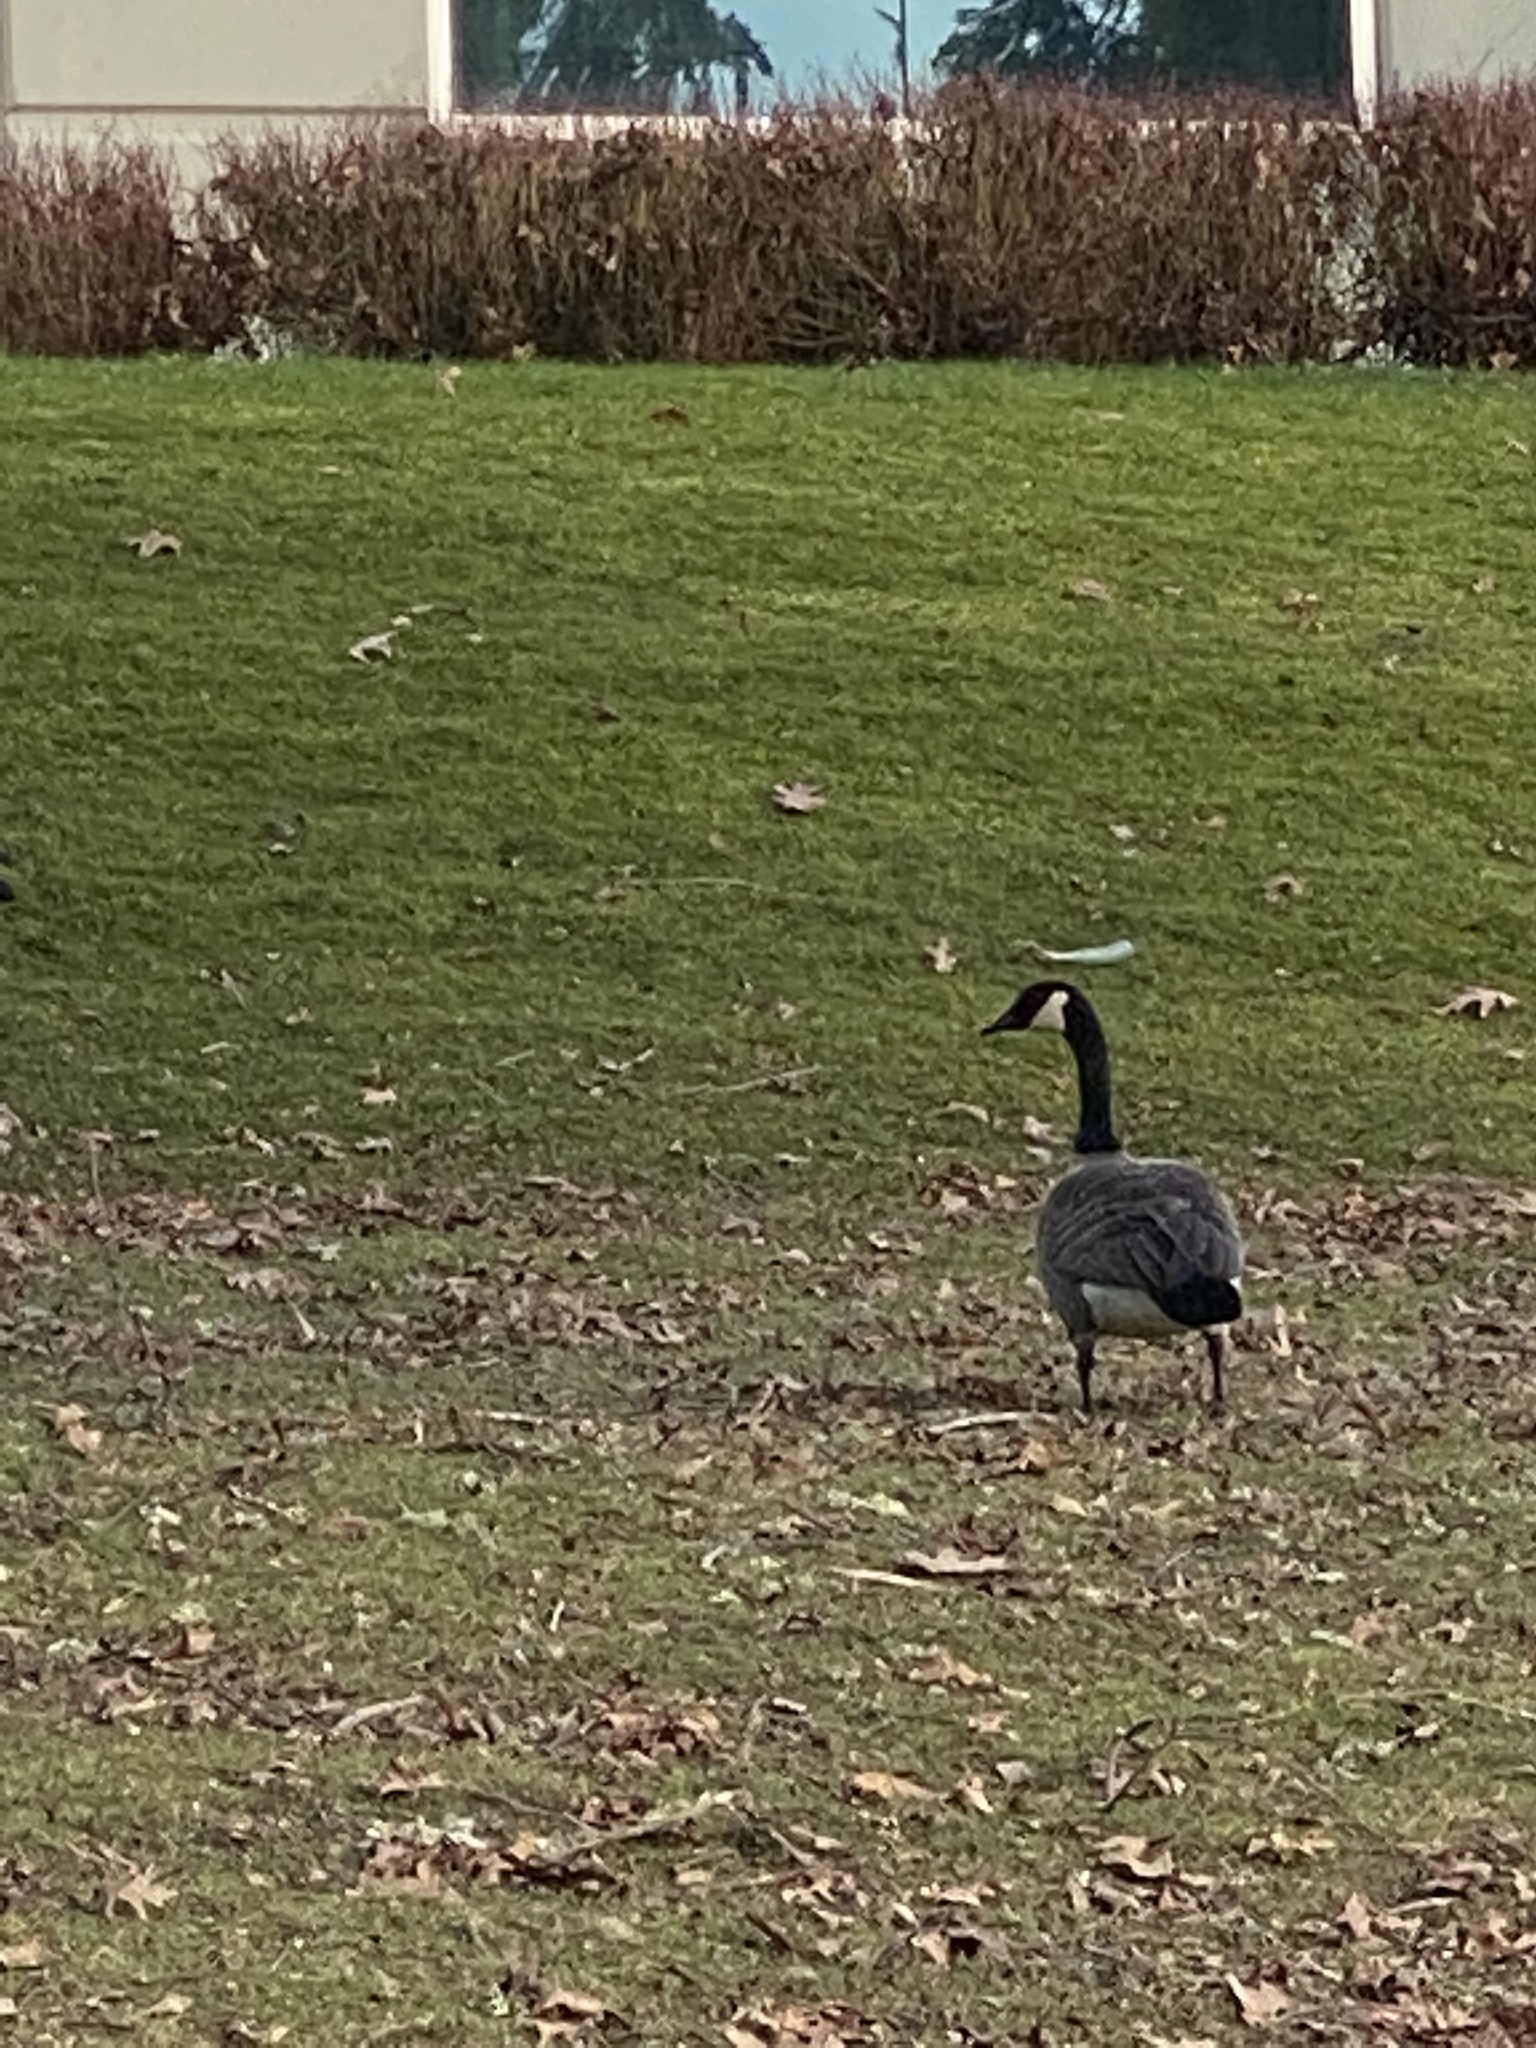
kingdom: Animalia
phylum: Chordata
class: Aves
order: Anseriformes
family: Anatidae
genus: Branta
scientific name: Branta canadensis
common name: Canada goose
